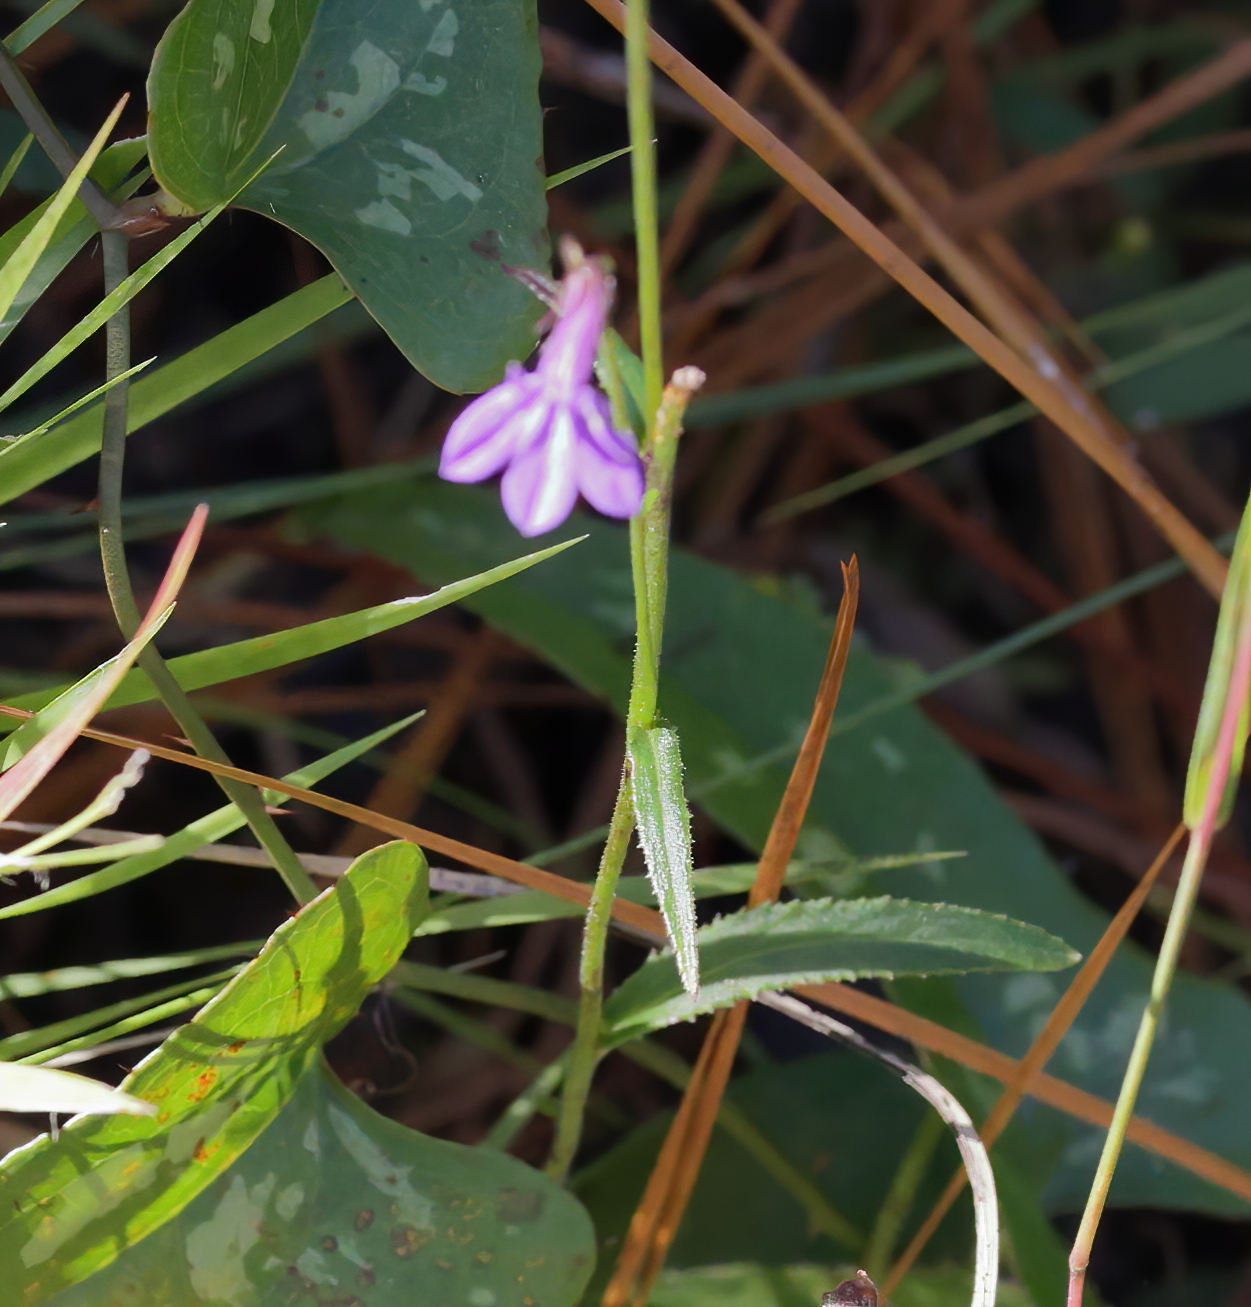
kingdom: Plantae
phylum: Tracheophyta
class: Magnoliopsida
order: Asterales
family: Campanulaceae
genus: Lobelia
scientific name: Lobelia puberula
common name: Purple dewdrop
